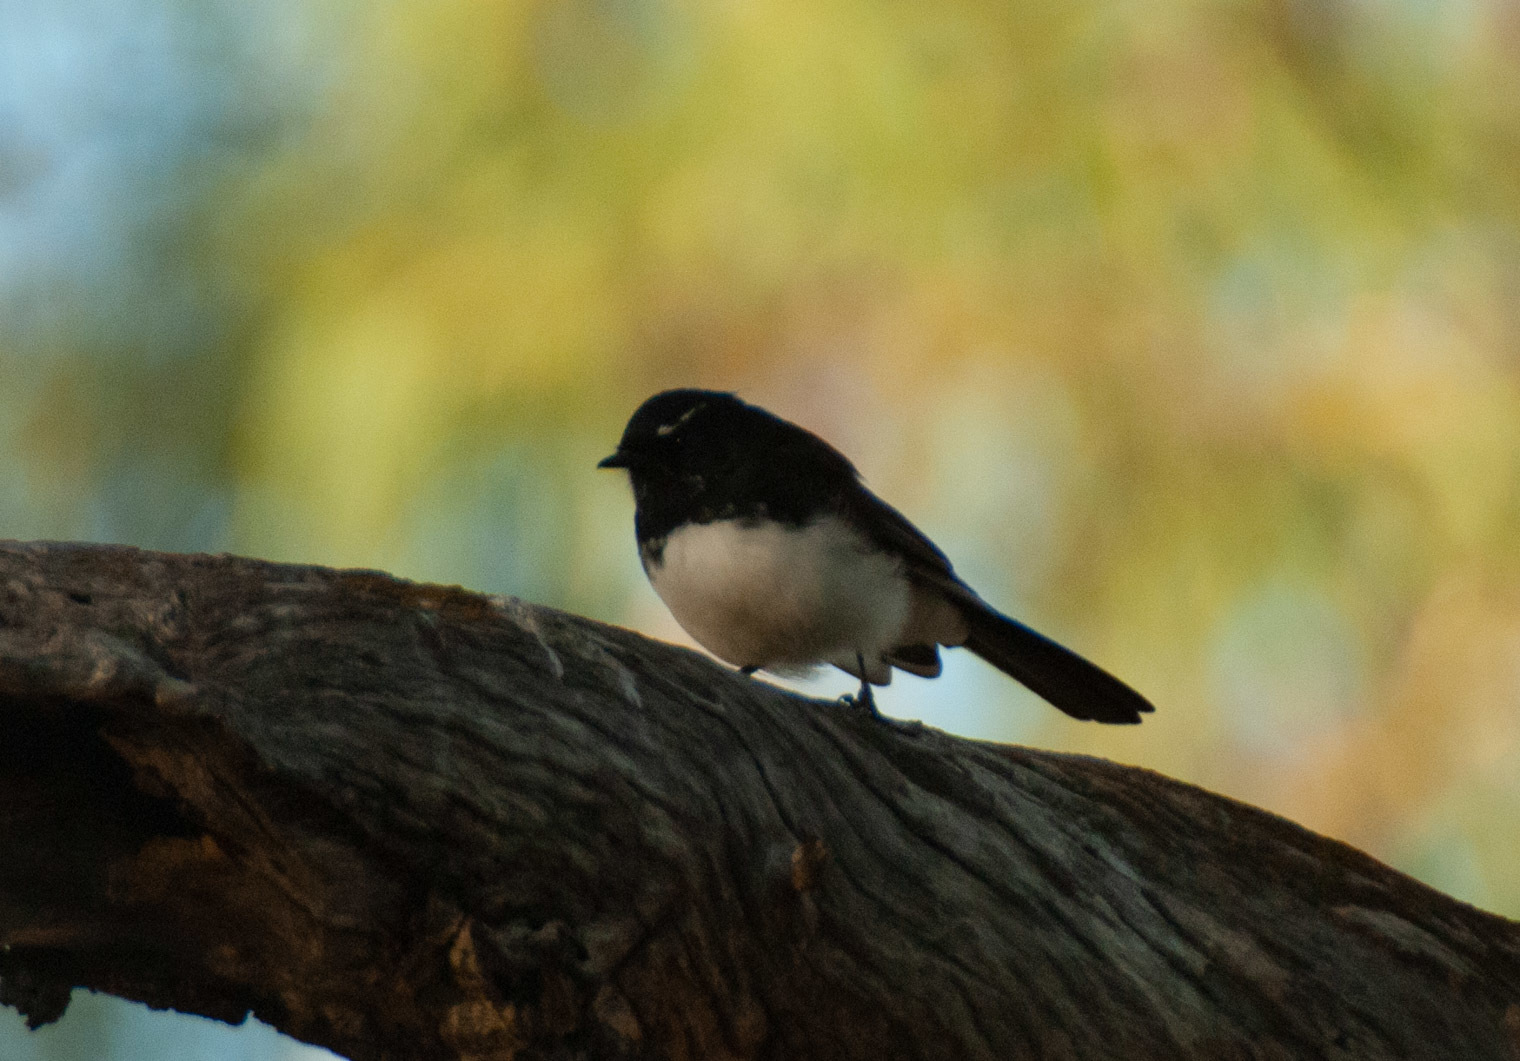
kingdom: Animalia
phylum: Chordata
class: Aves
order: Passeriformes
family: Rhipiduridae
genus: Rhipidura
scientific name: Rhipidura leucophrys
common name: Willie wagtail
